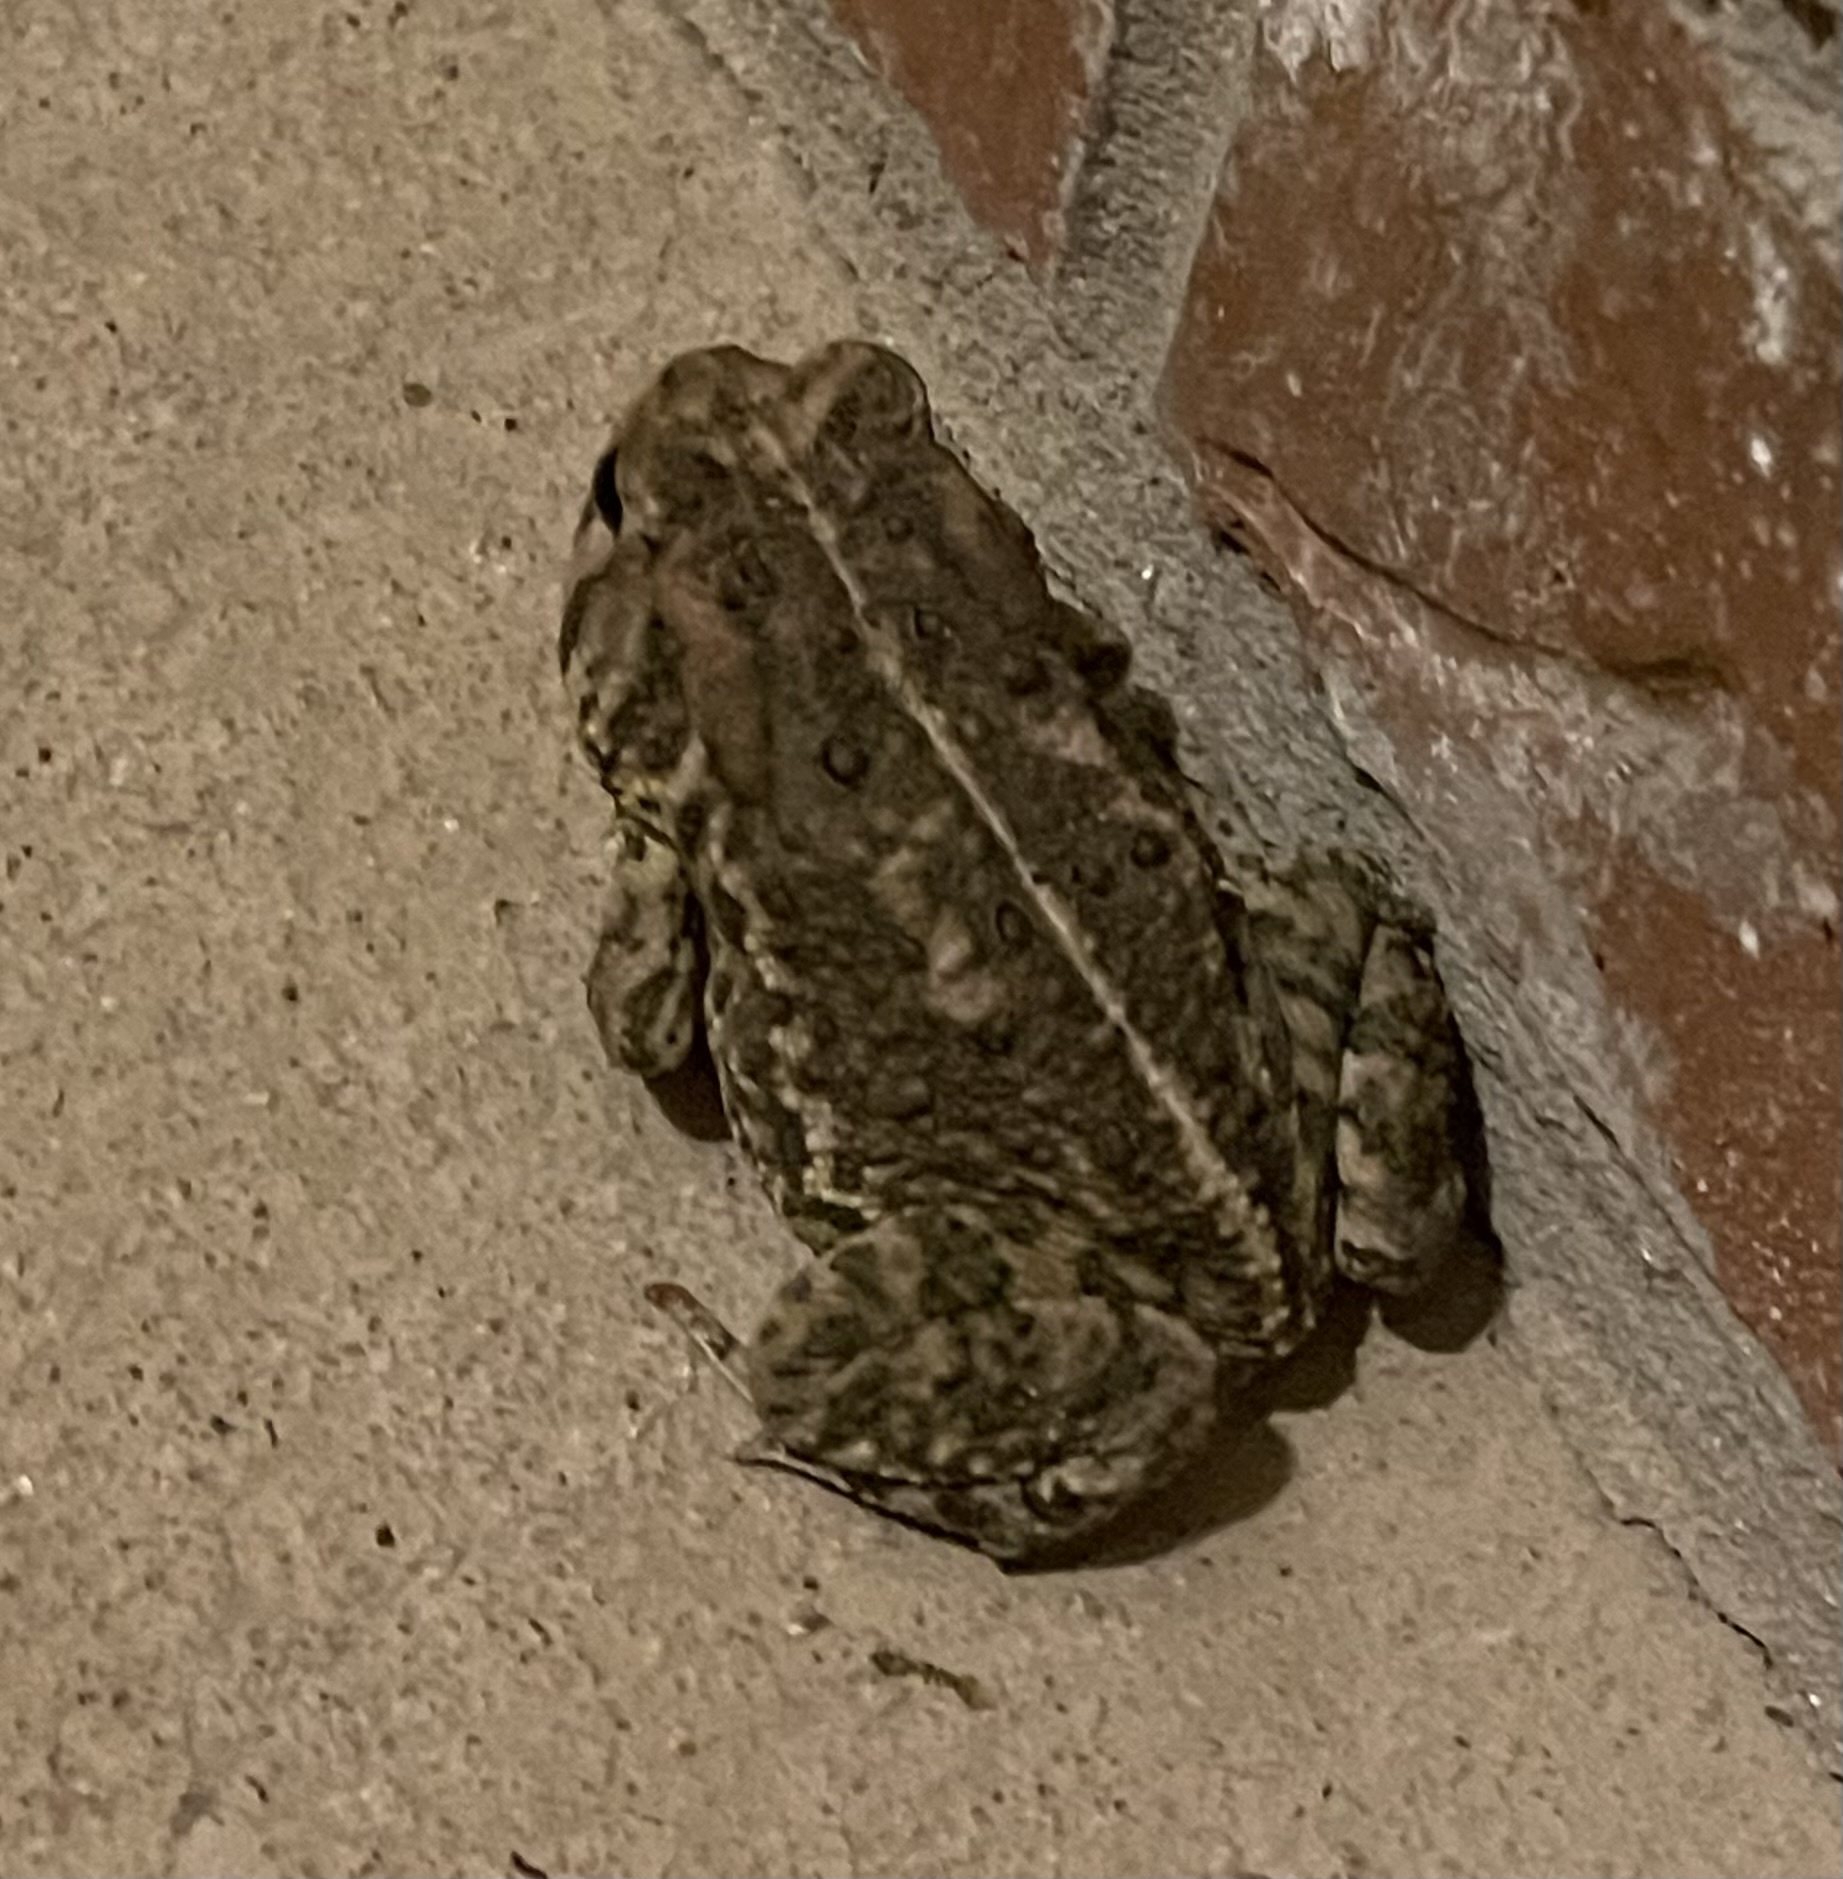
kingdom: Animalia
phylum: Chordata
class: Amphibia
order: Anura
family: Bufonidae
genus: Anaxyrus
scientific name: Anaxyrus woodhousii
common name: Woodhouse's toad
